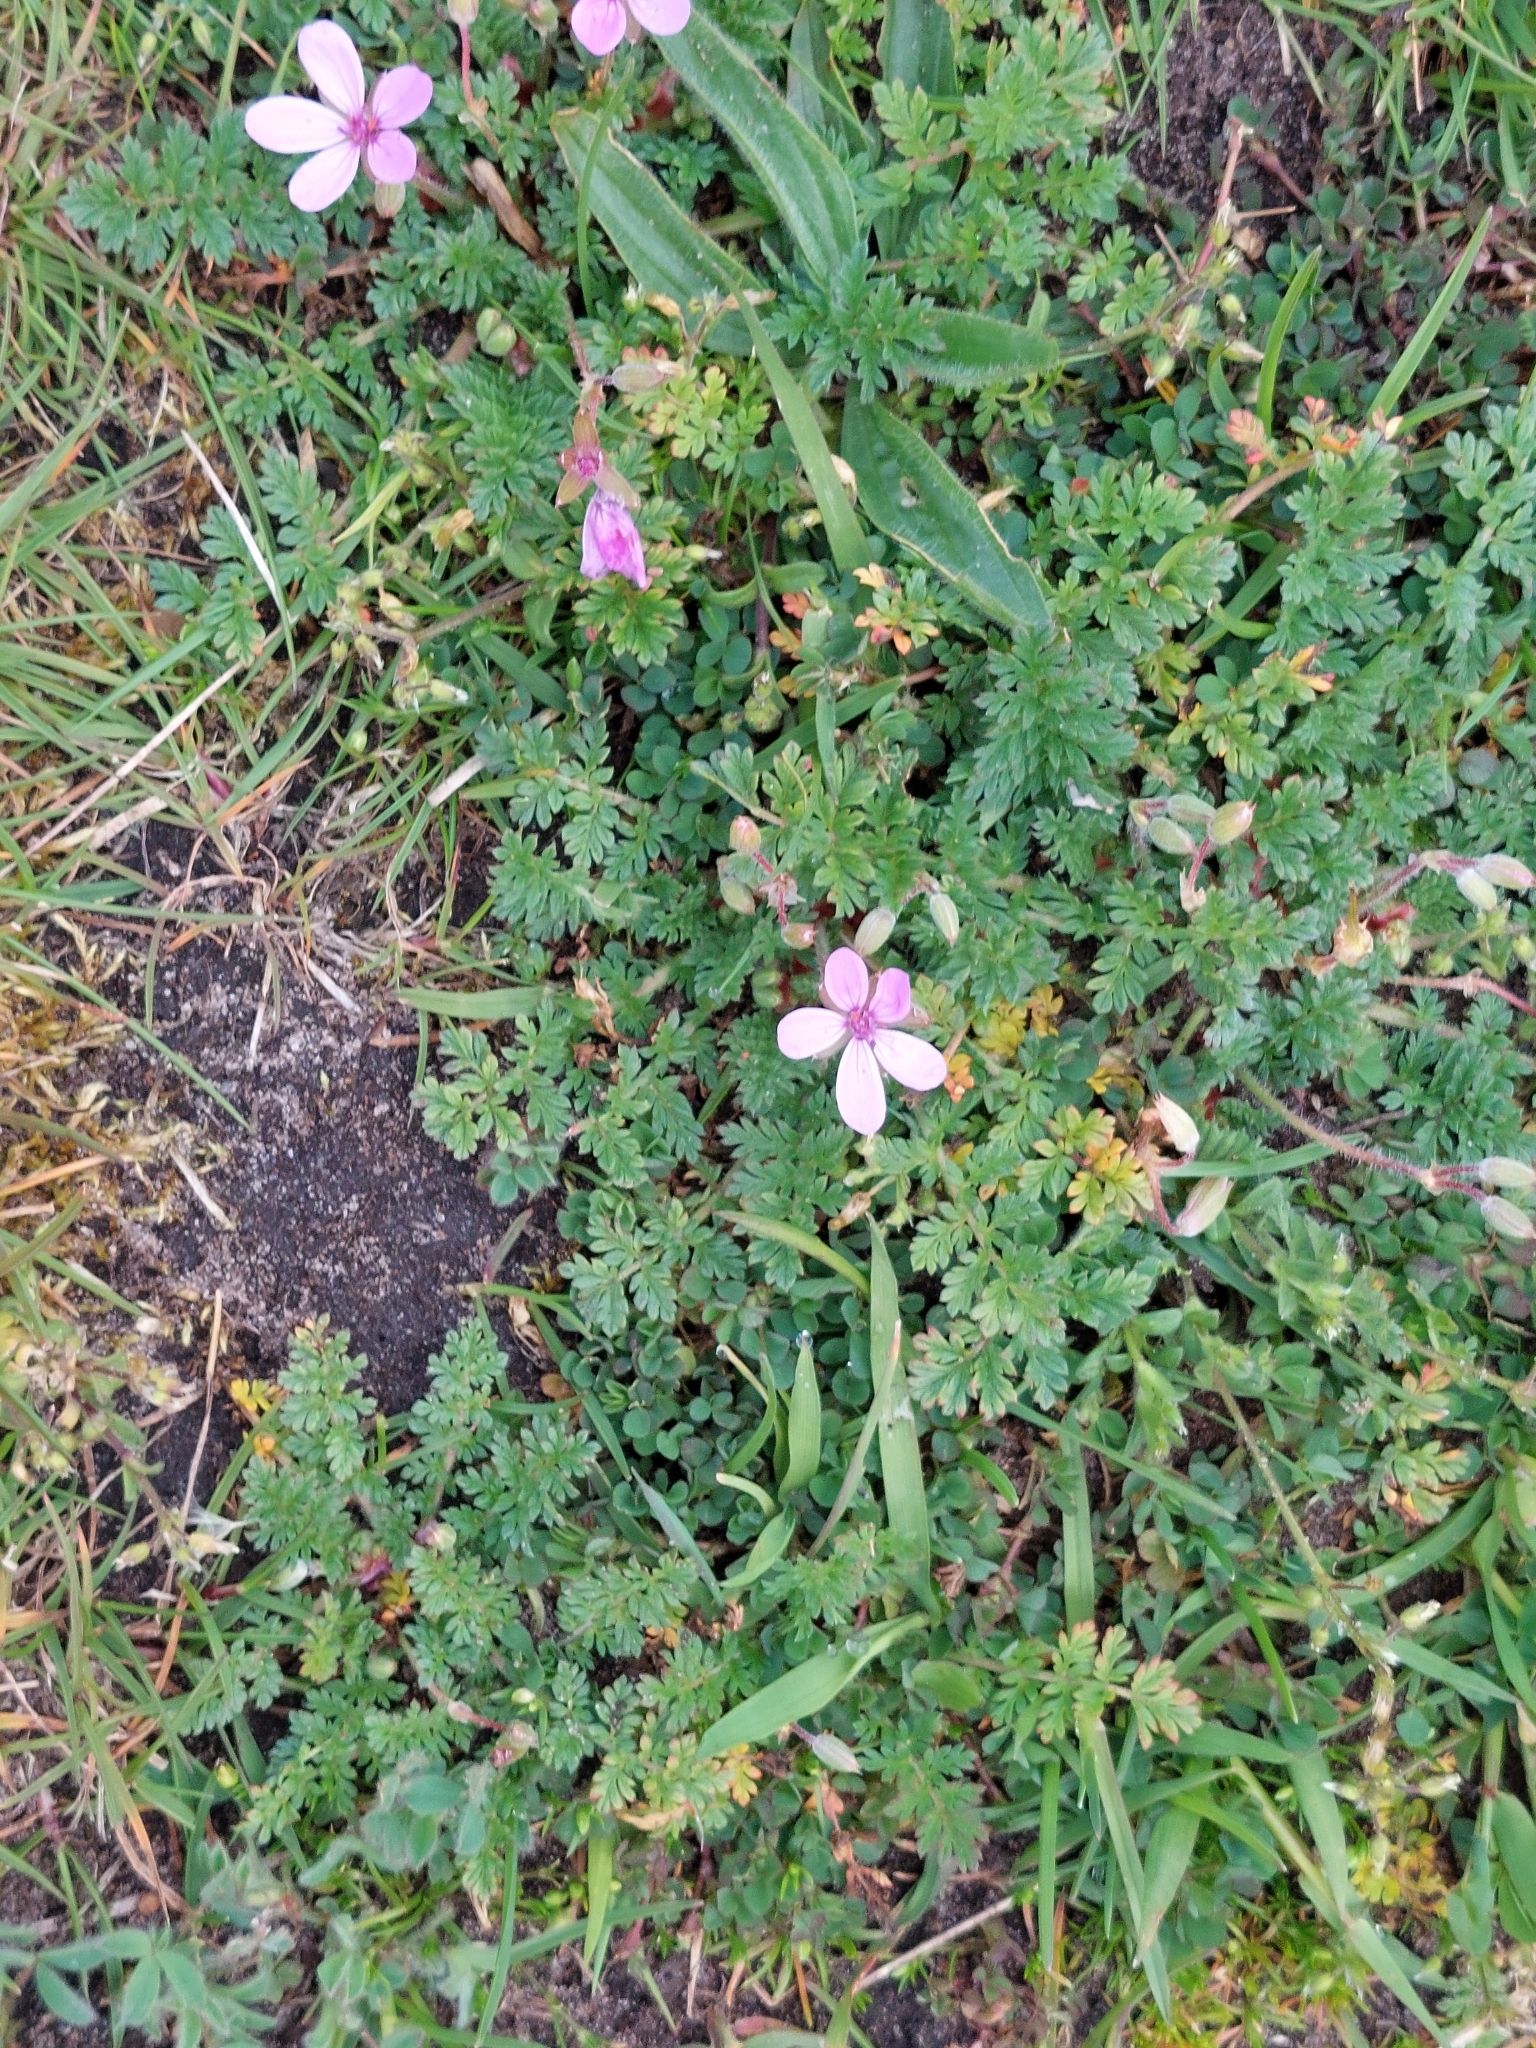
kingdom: Plantae
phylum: Tracheophyta
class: Magnoliopsida
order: Geraniales
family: Geraniaceae
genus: Erodium
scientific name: Erodium cicutarium
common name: Common stork's-bill
